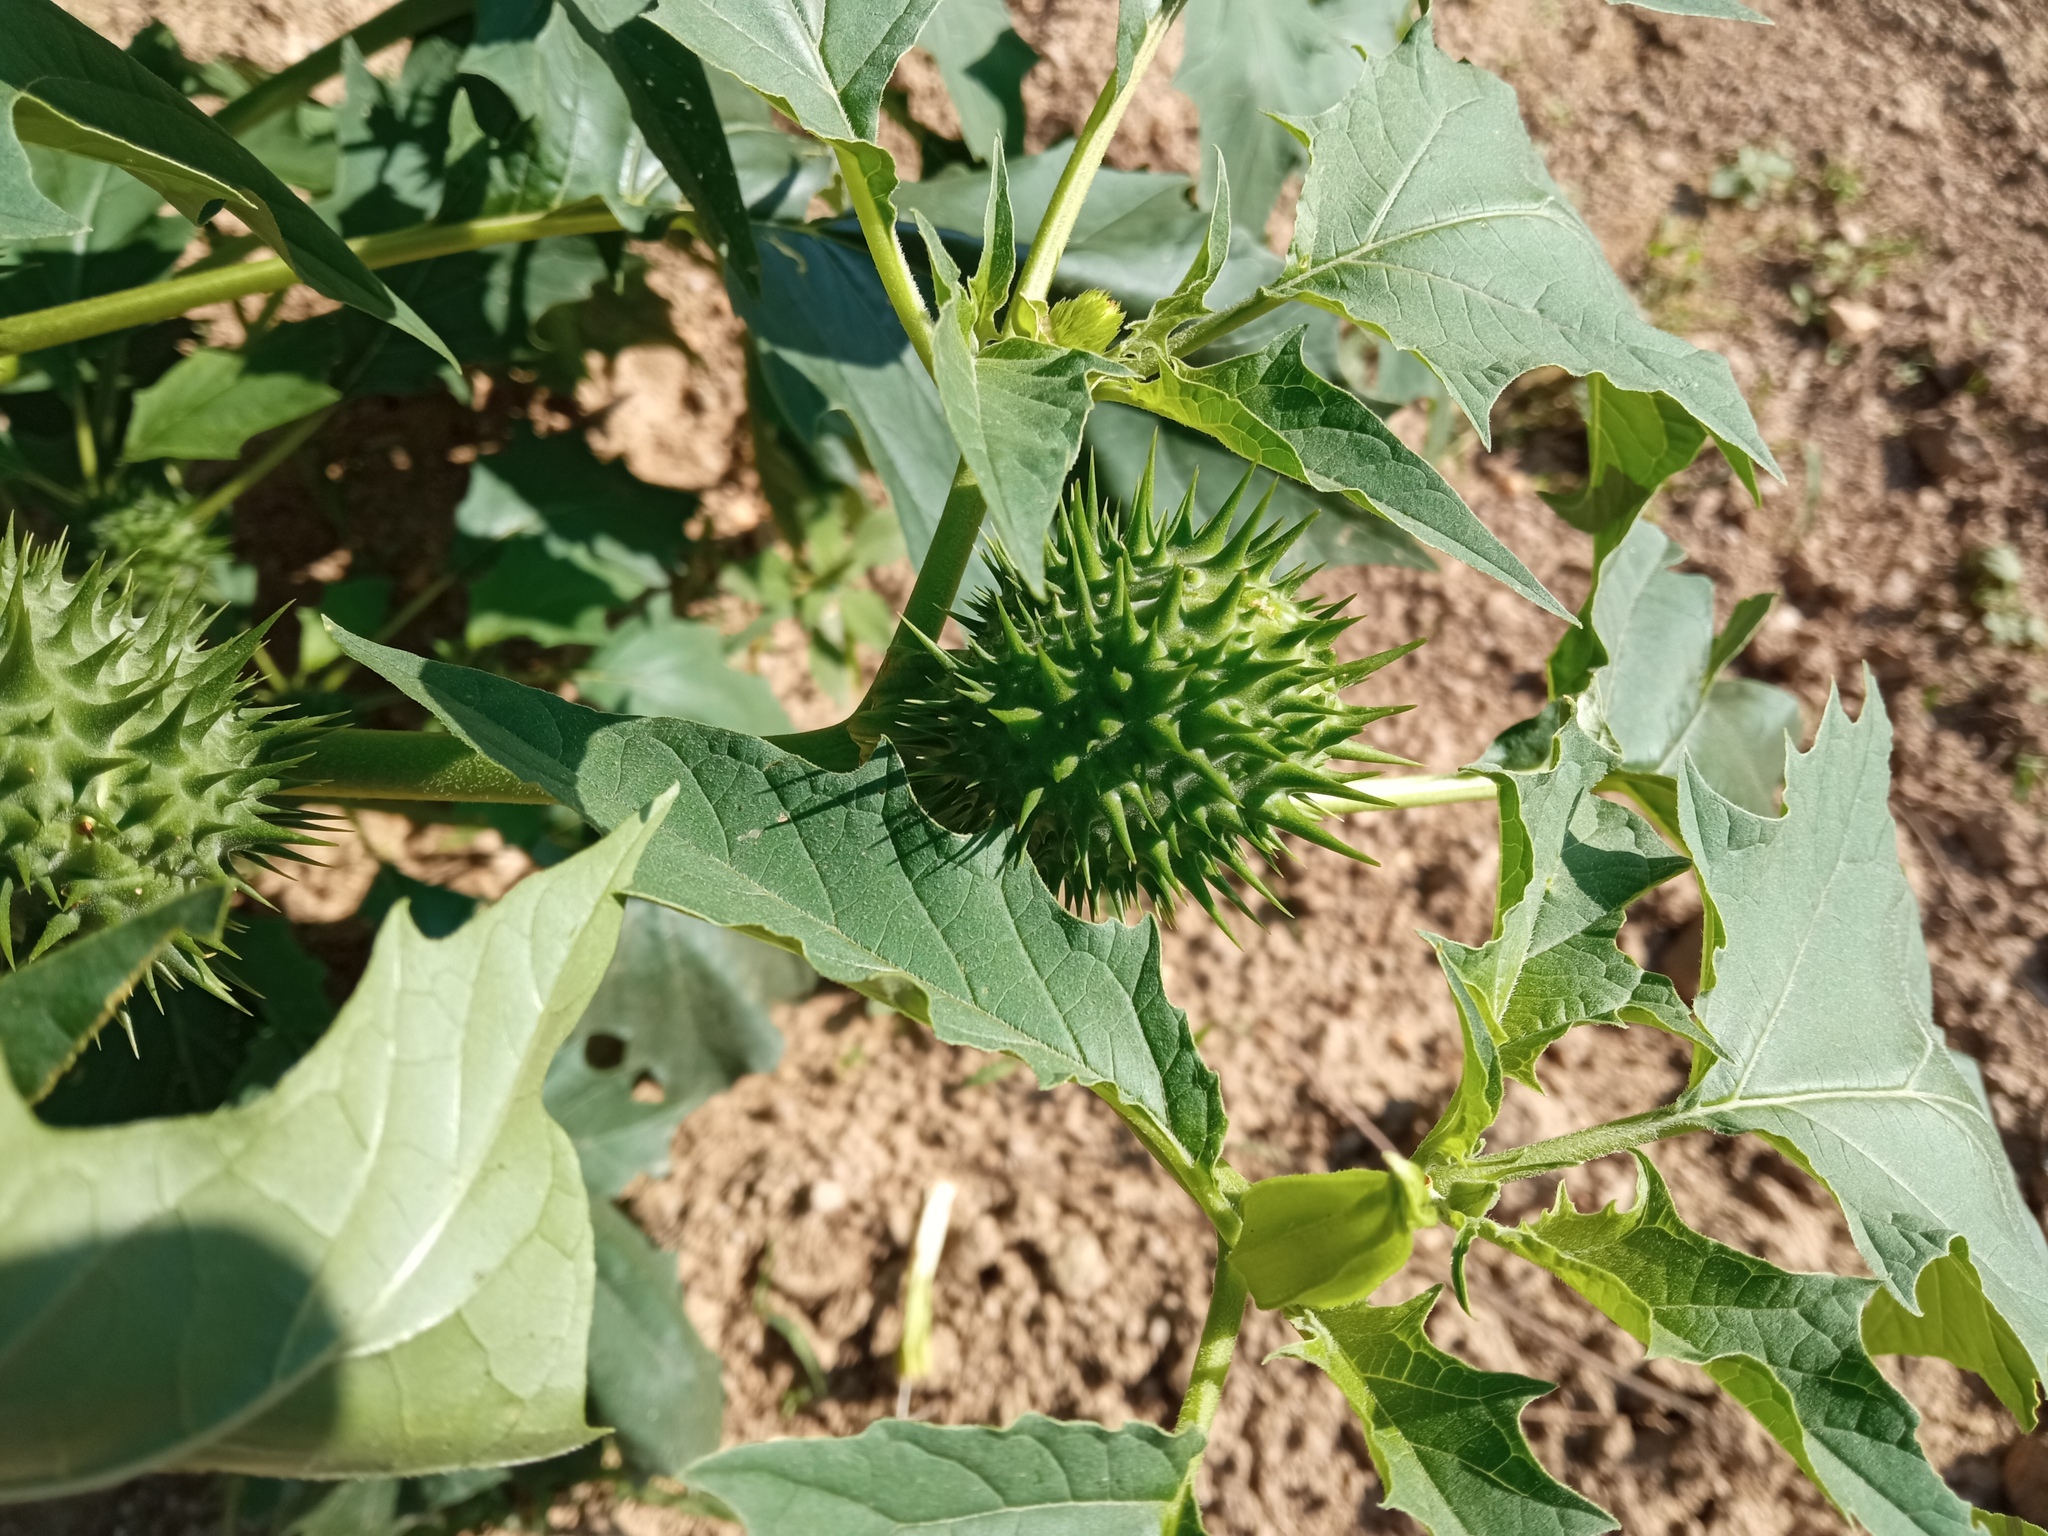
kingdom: Plantae
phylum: Tracheophyta
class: Magnoliopsida
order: Solanales
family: Solanaceae
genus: Datura
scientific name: Datura stramonium
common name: Thorn-apple
